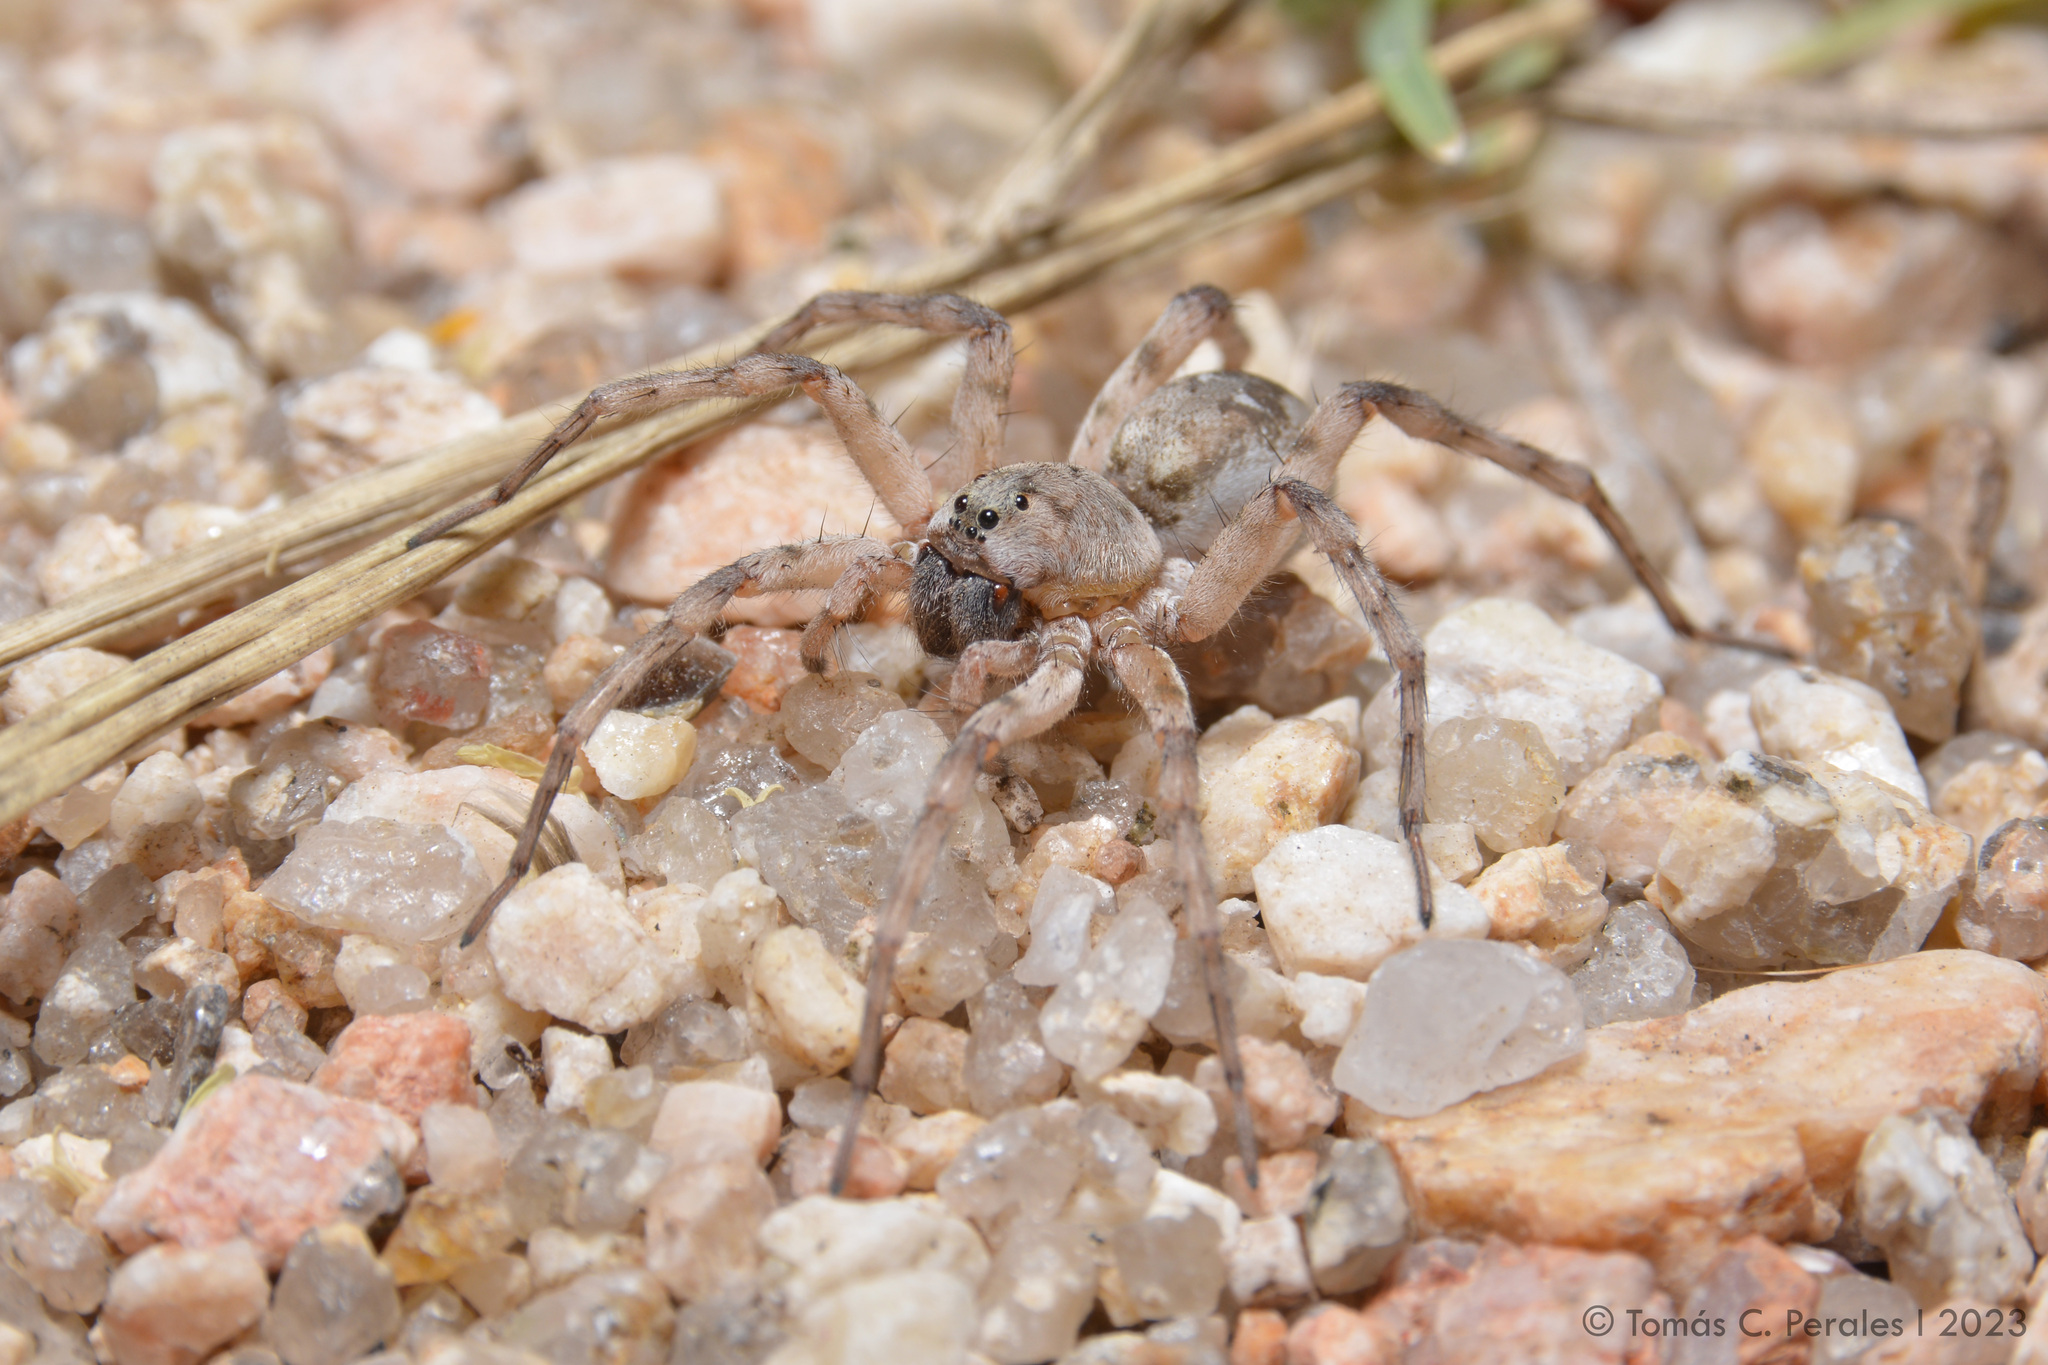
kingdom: Animalia
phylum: Arthropoda
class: Arachnida
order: Araneae
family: Lycosidae
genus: Allocosa
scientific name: Allocosa senex
